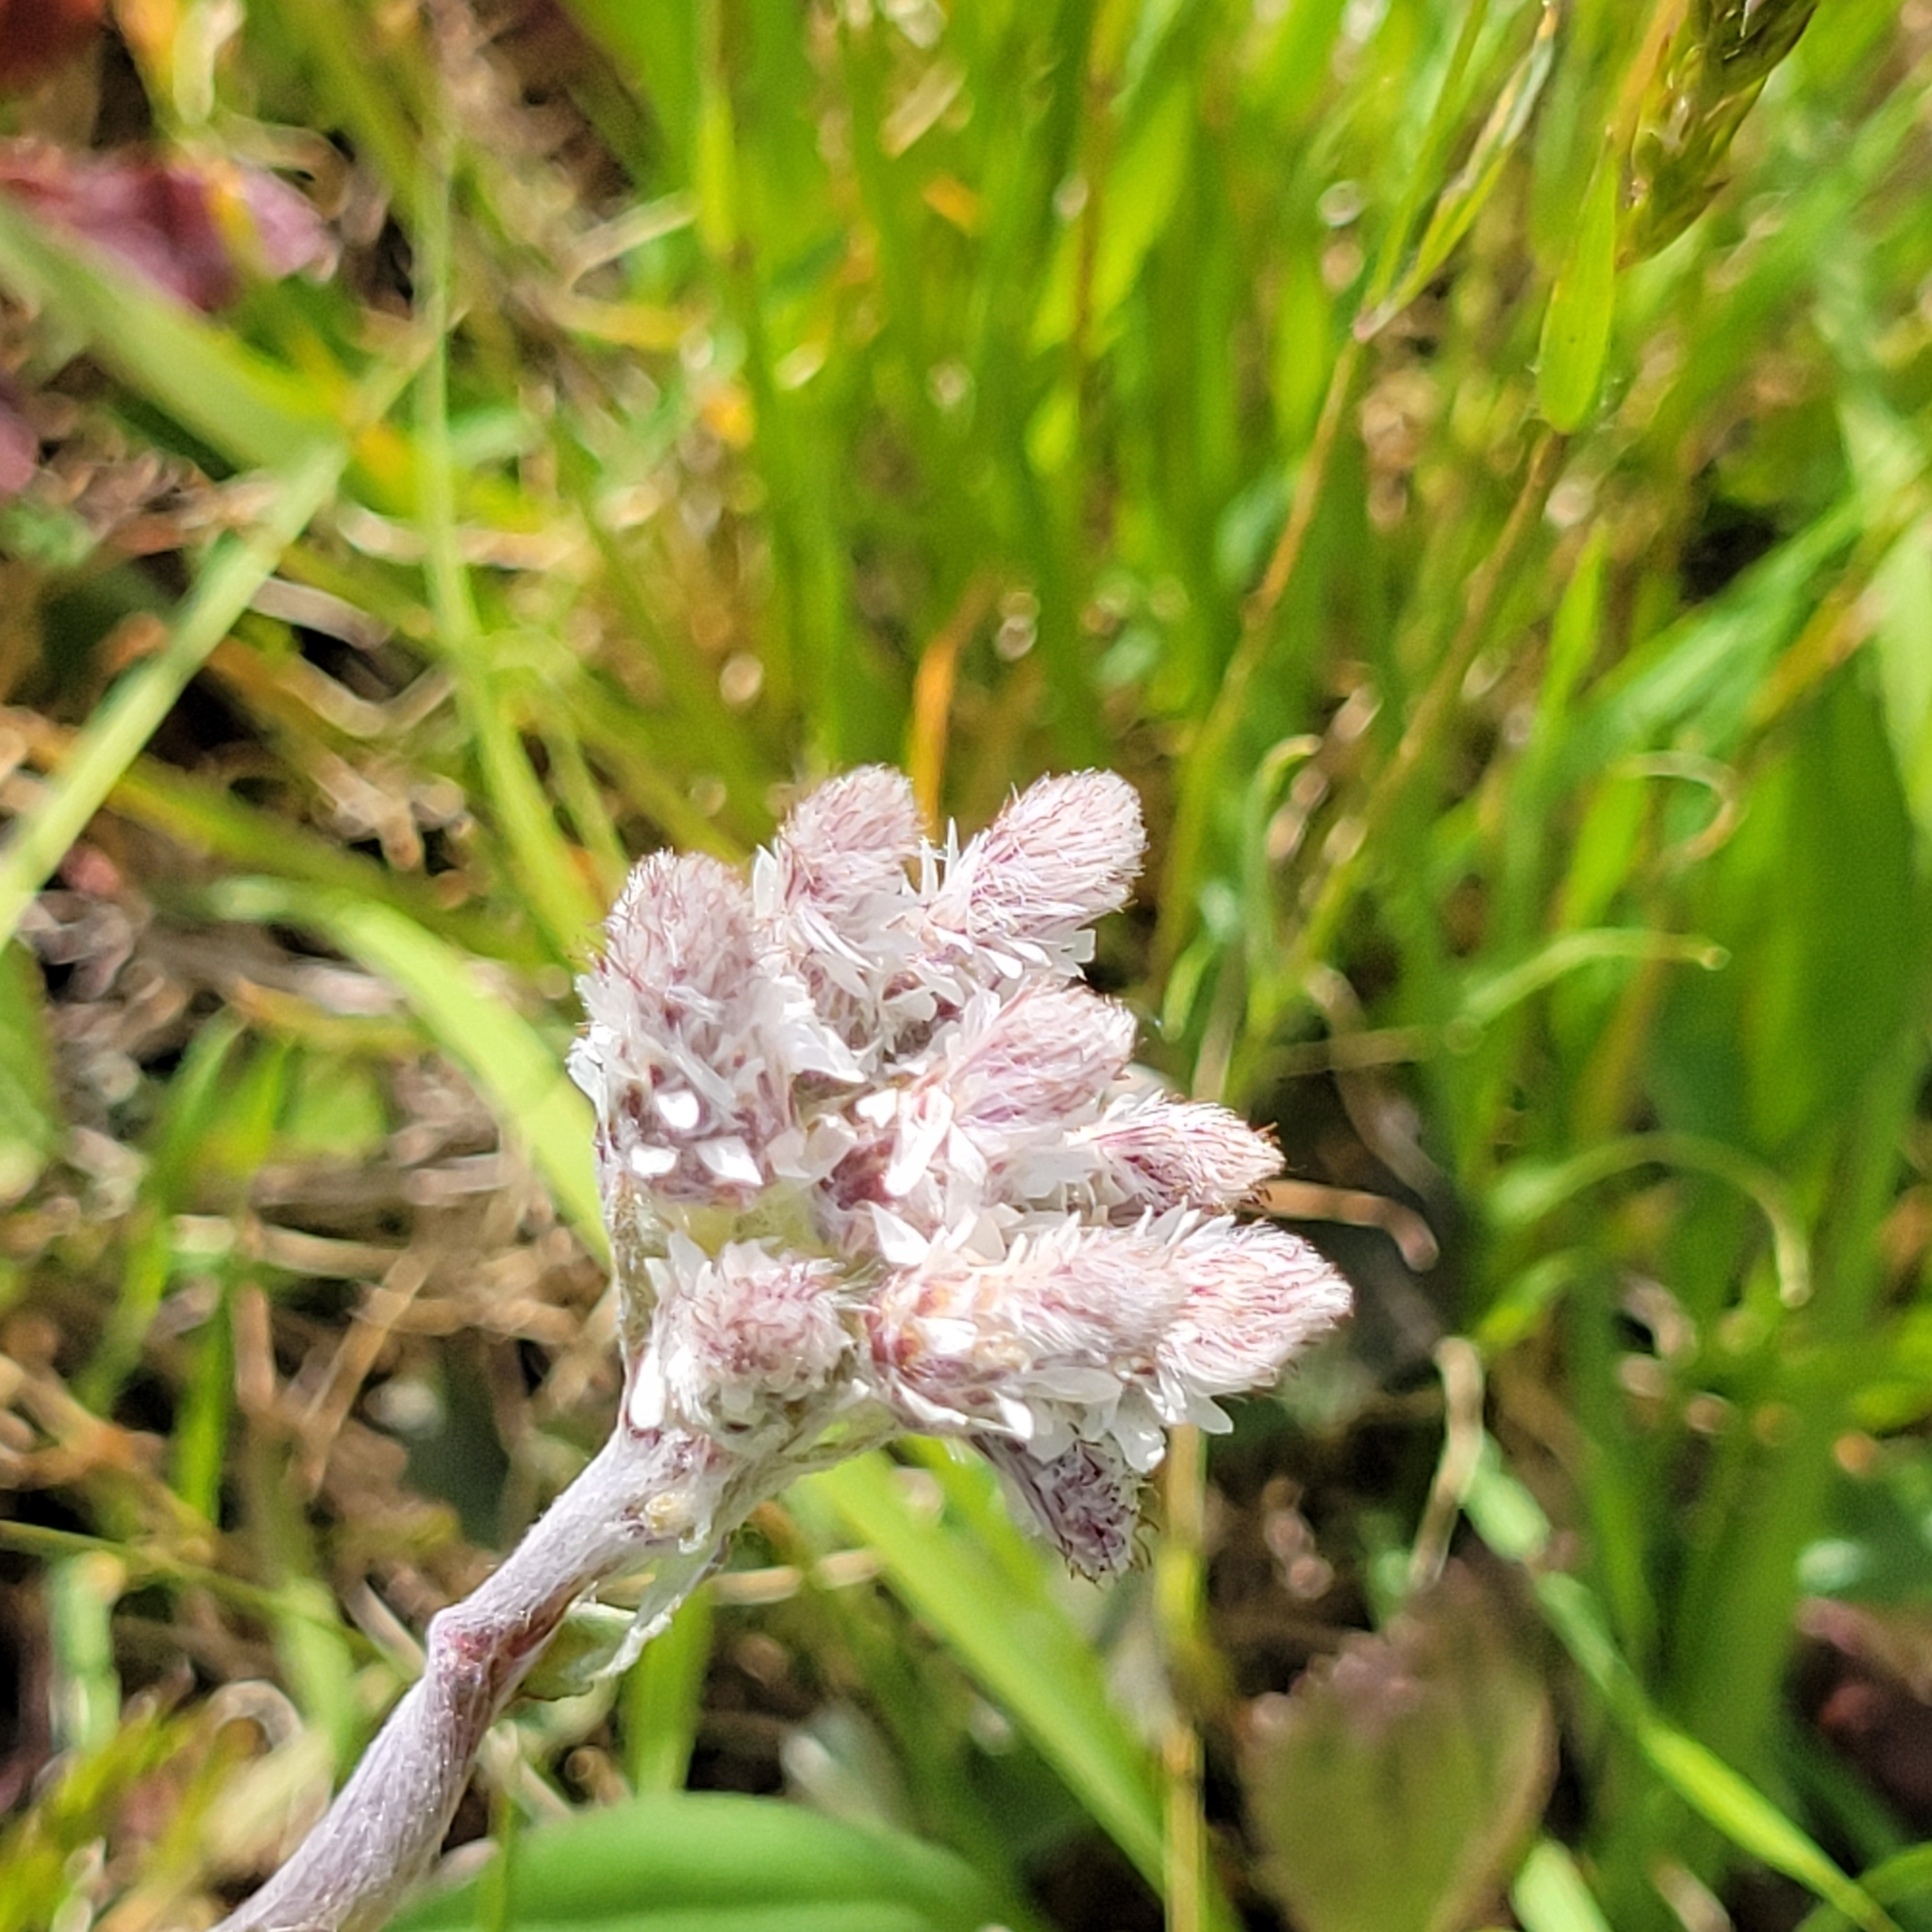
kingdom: Plantae
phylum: Tracheophyta
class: Magnoliopsida
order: Asterales
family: Asteraceae
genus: Antennaria
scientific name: Antennaria neglecta
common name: Field pussytoes
